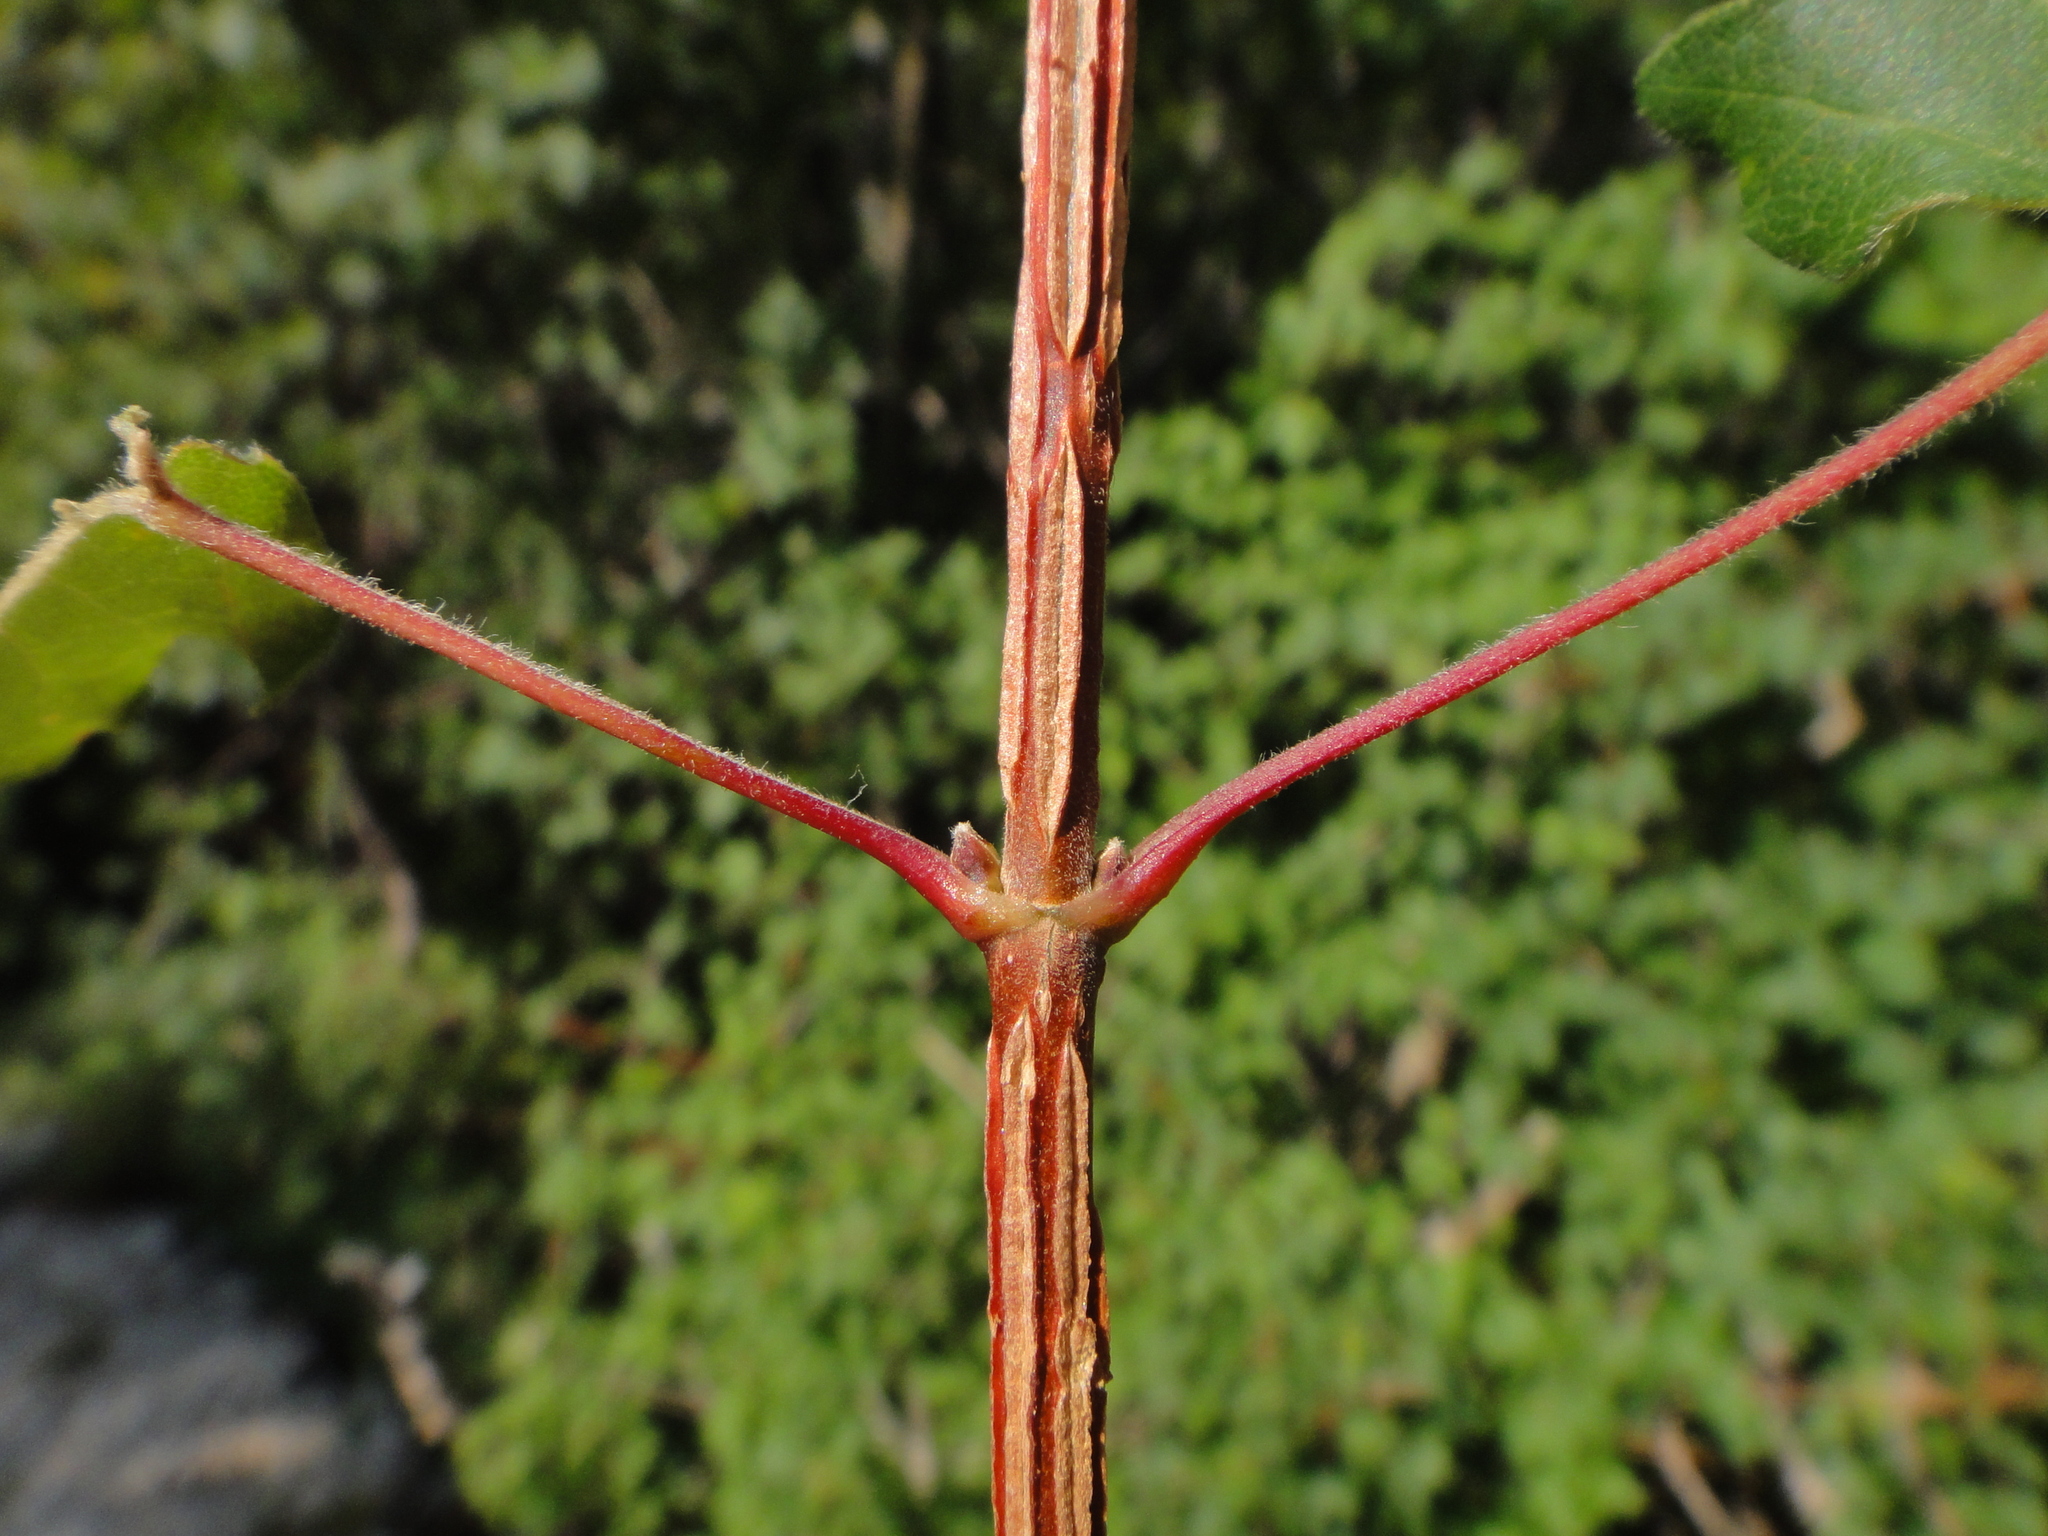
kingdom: Plantae
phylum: Tracheophyta
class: Magnoliopsida
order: Sapindales
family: Sapindaceae
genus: Acer
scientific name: Acer campestre
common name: Field maple
